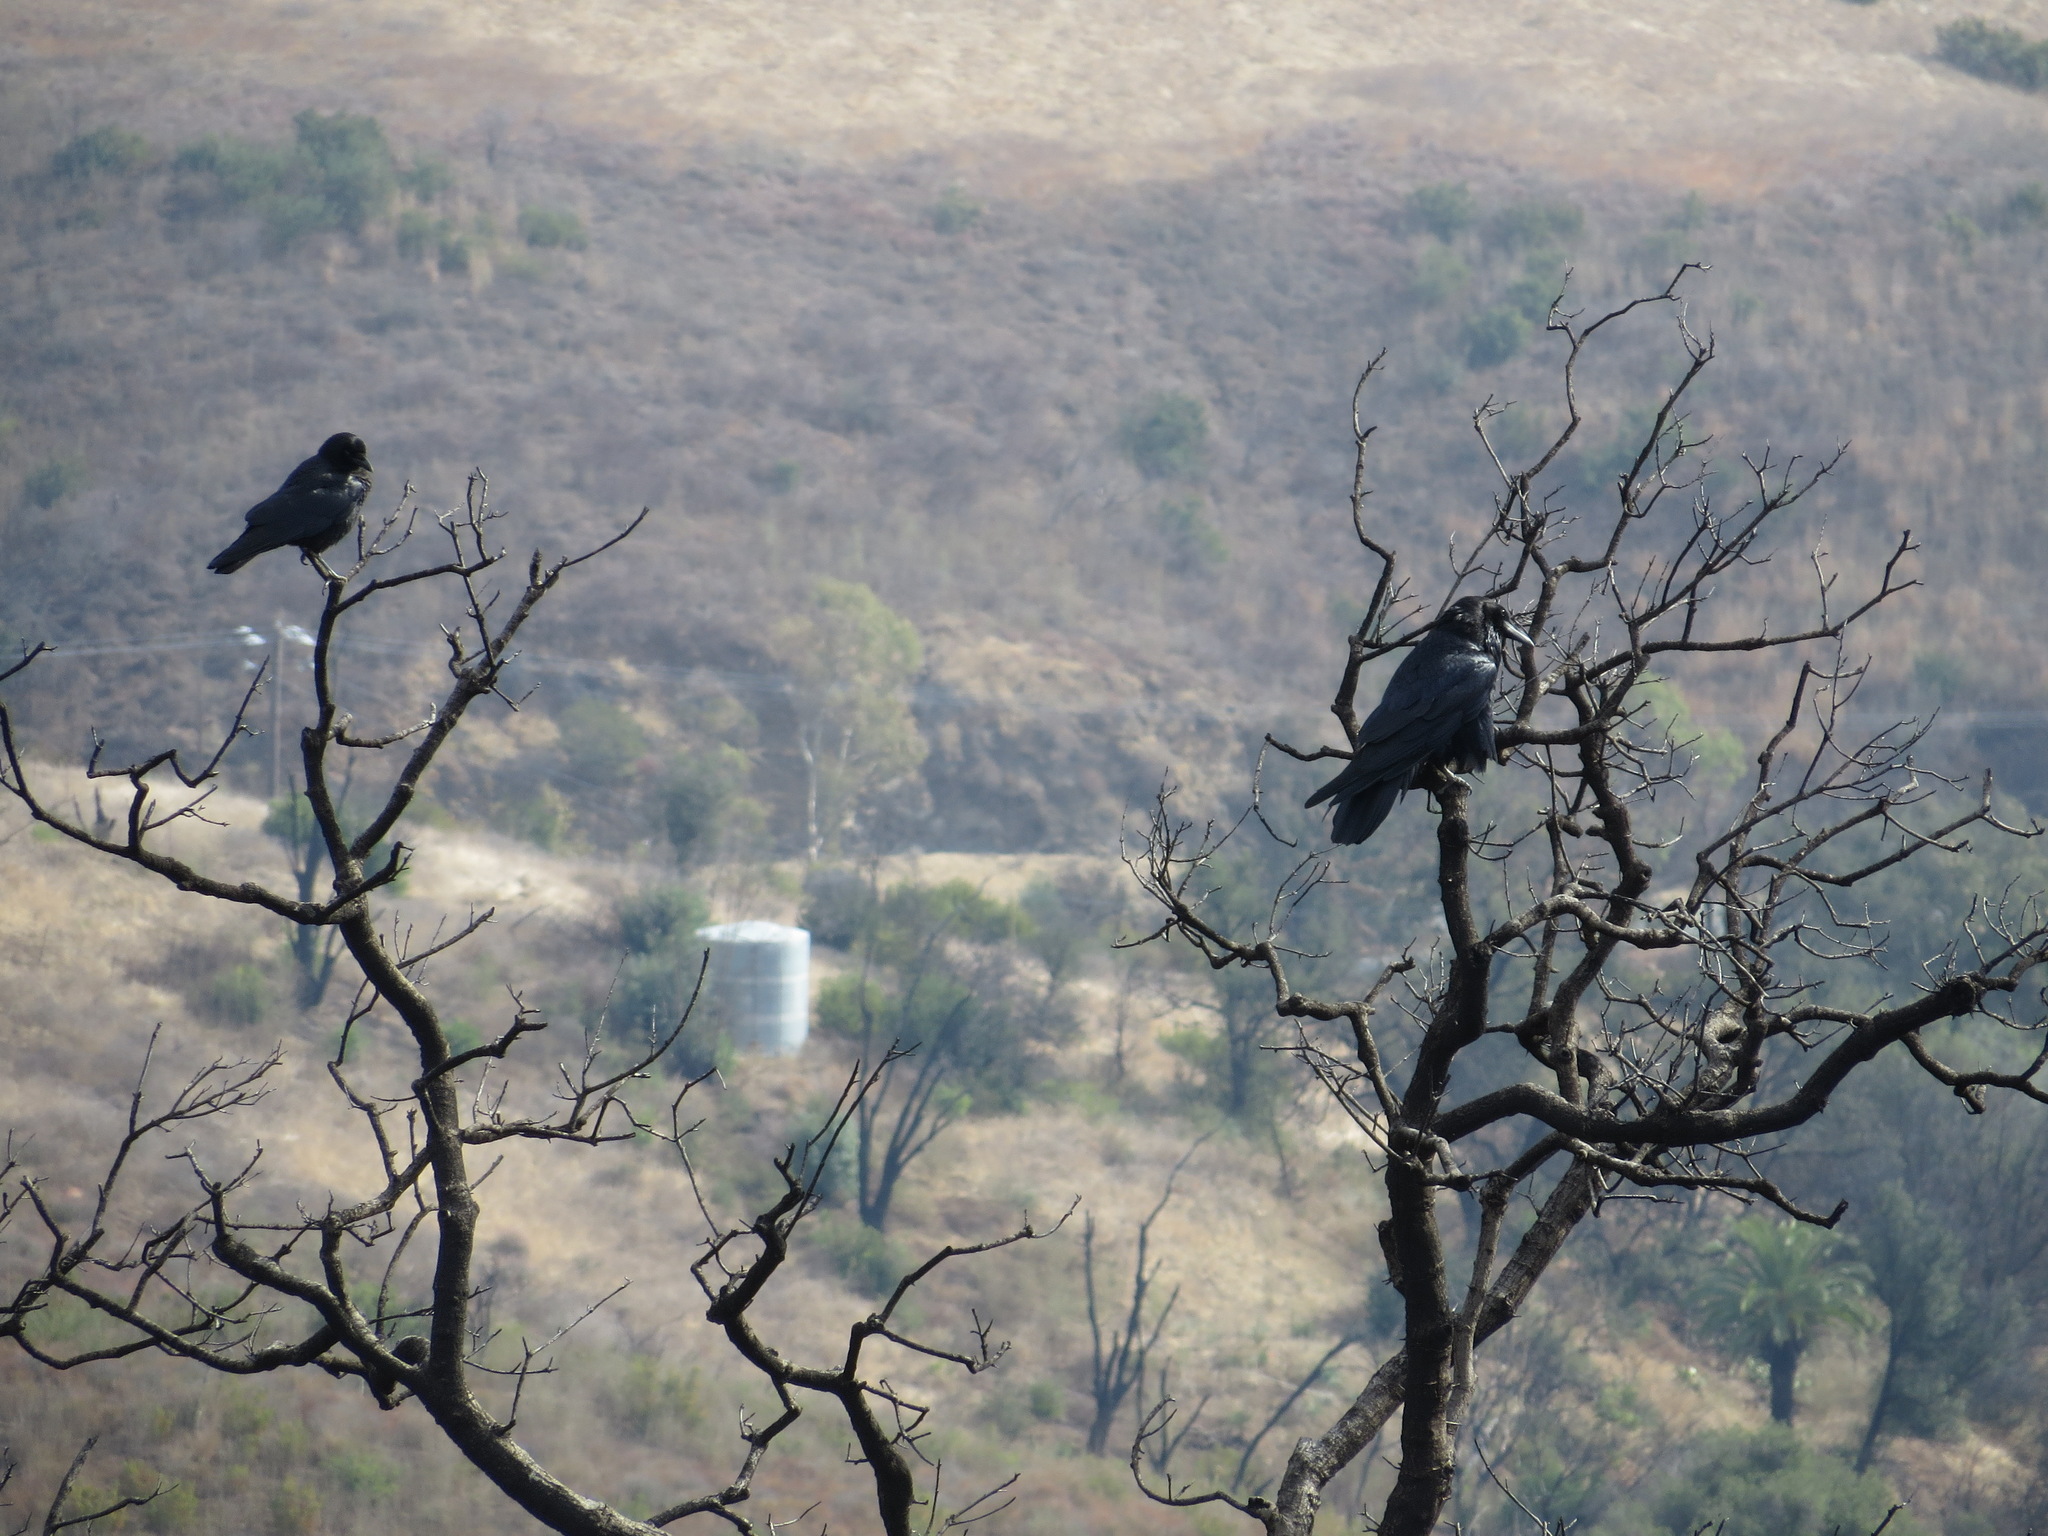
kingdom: Animalia
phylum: Chordata
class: Aves
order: Passeriformes
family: Corvidae
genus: Corvus
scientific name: Corvus corax
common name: Common raven
